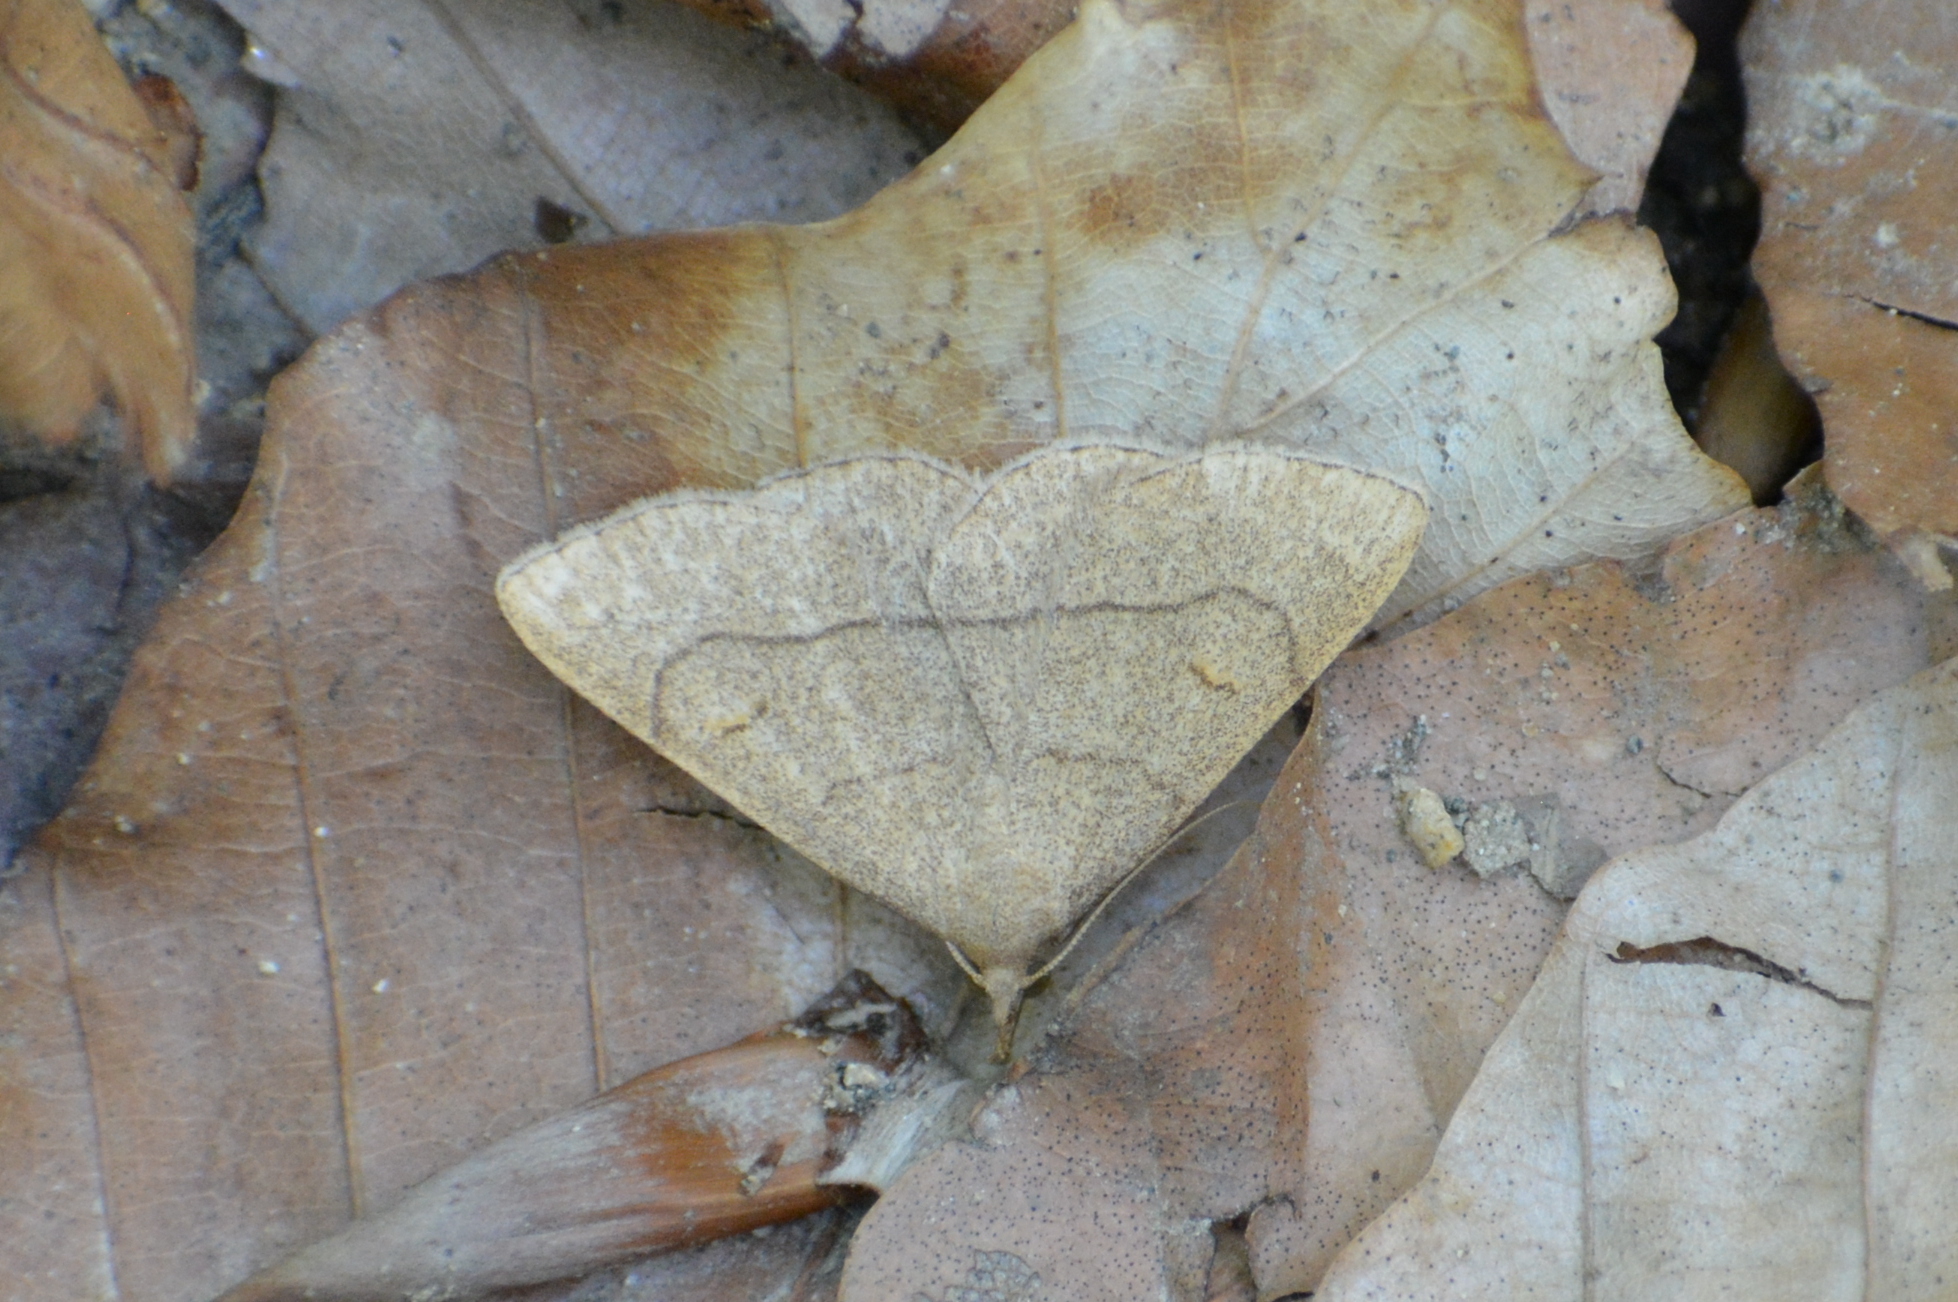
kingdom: Animalia
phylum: Arthropoda
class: Insecta
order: Lepidoptera
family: Erebidae
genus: Paracolax
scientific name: Paracolax tristalis
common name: Clay fan-foot
